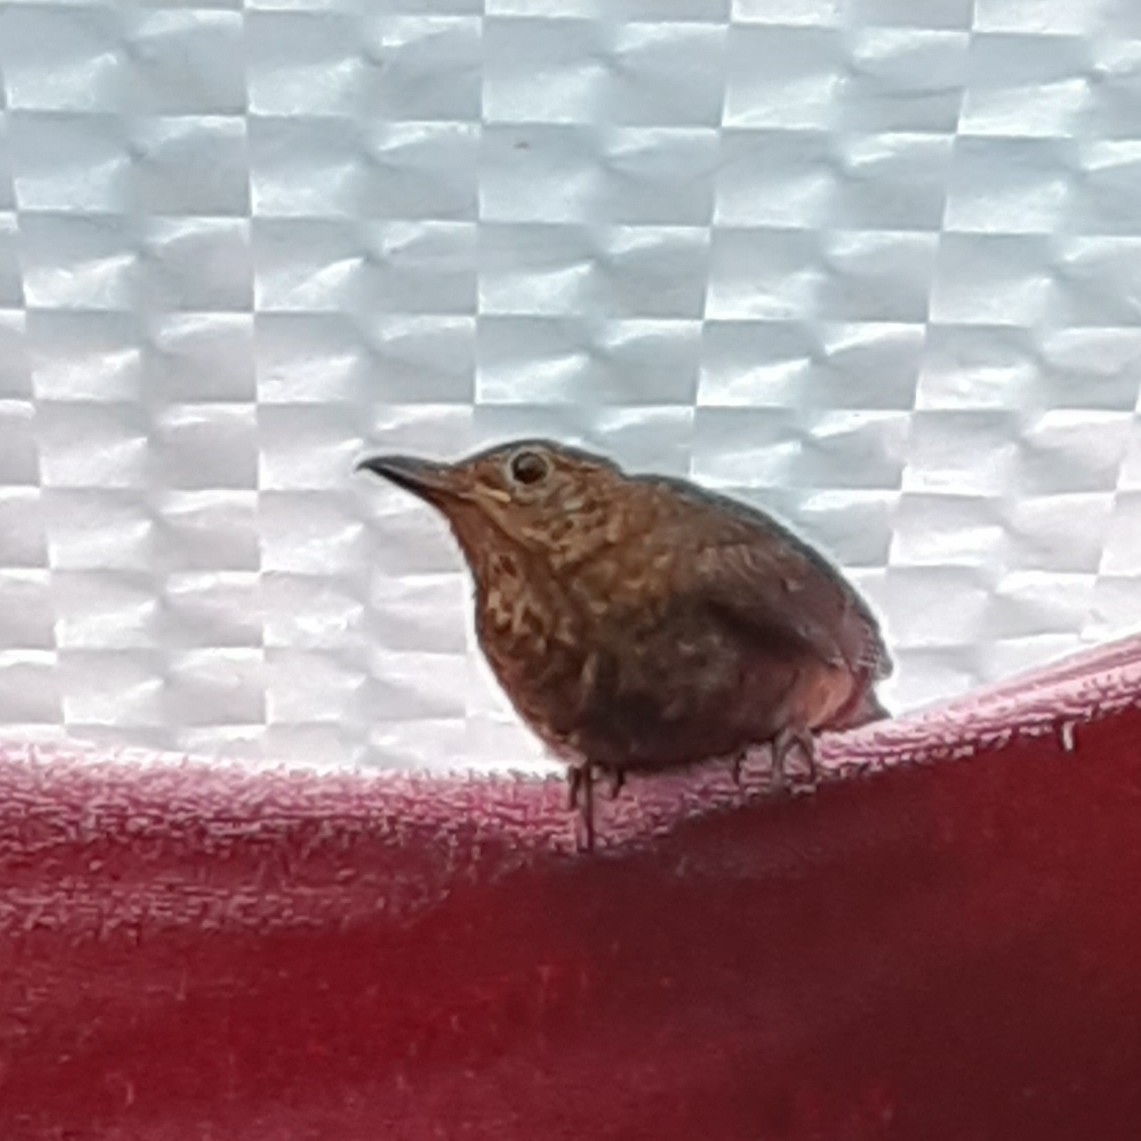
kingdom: Animalia
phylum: Chordata
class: Aves
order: Passeriformes
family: Turdidae
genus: Turdus
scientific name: Turdus merula
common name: Common blackbird
